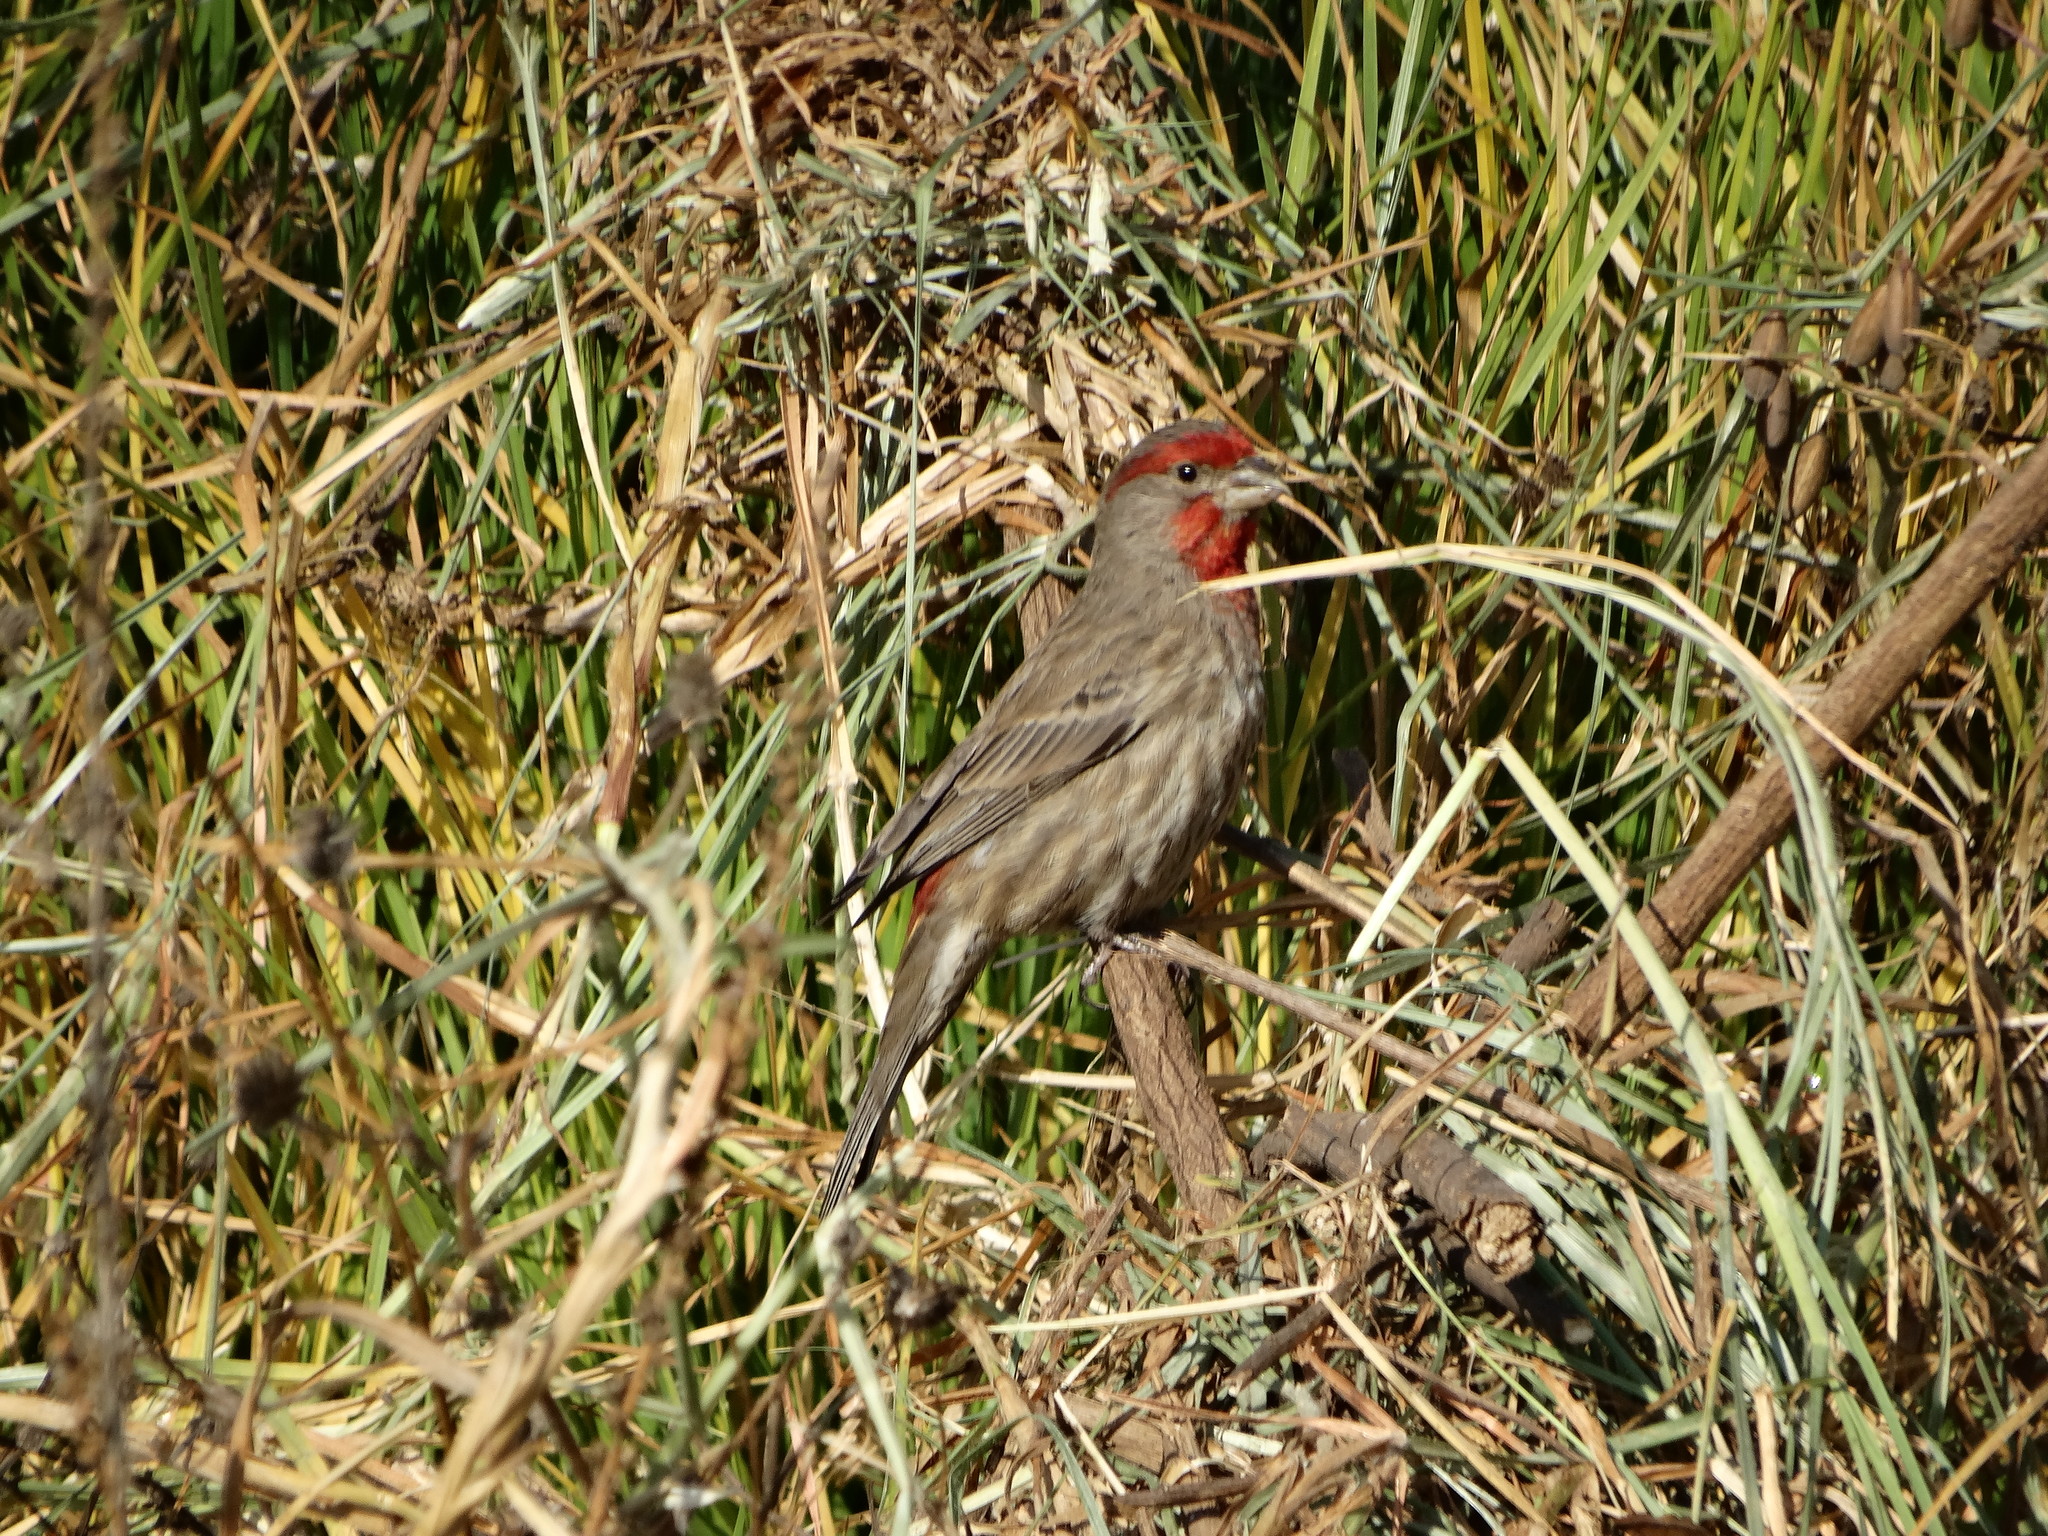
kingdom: Animalia
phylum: Chordata
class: Aves
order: Passeriformes
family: Fringillidae
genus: Haemorhous
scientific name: Haemorhous mexicanus
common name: House finch
